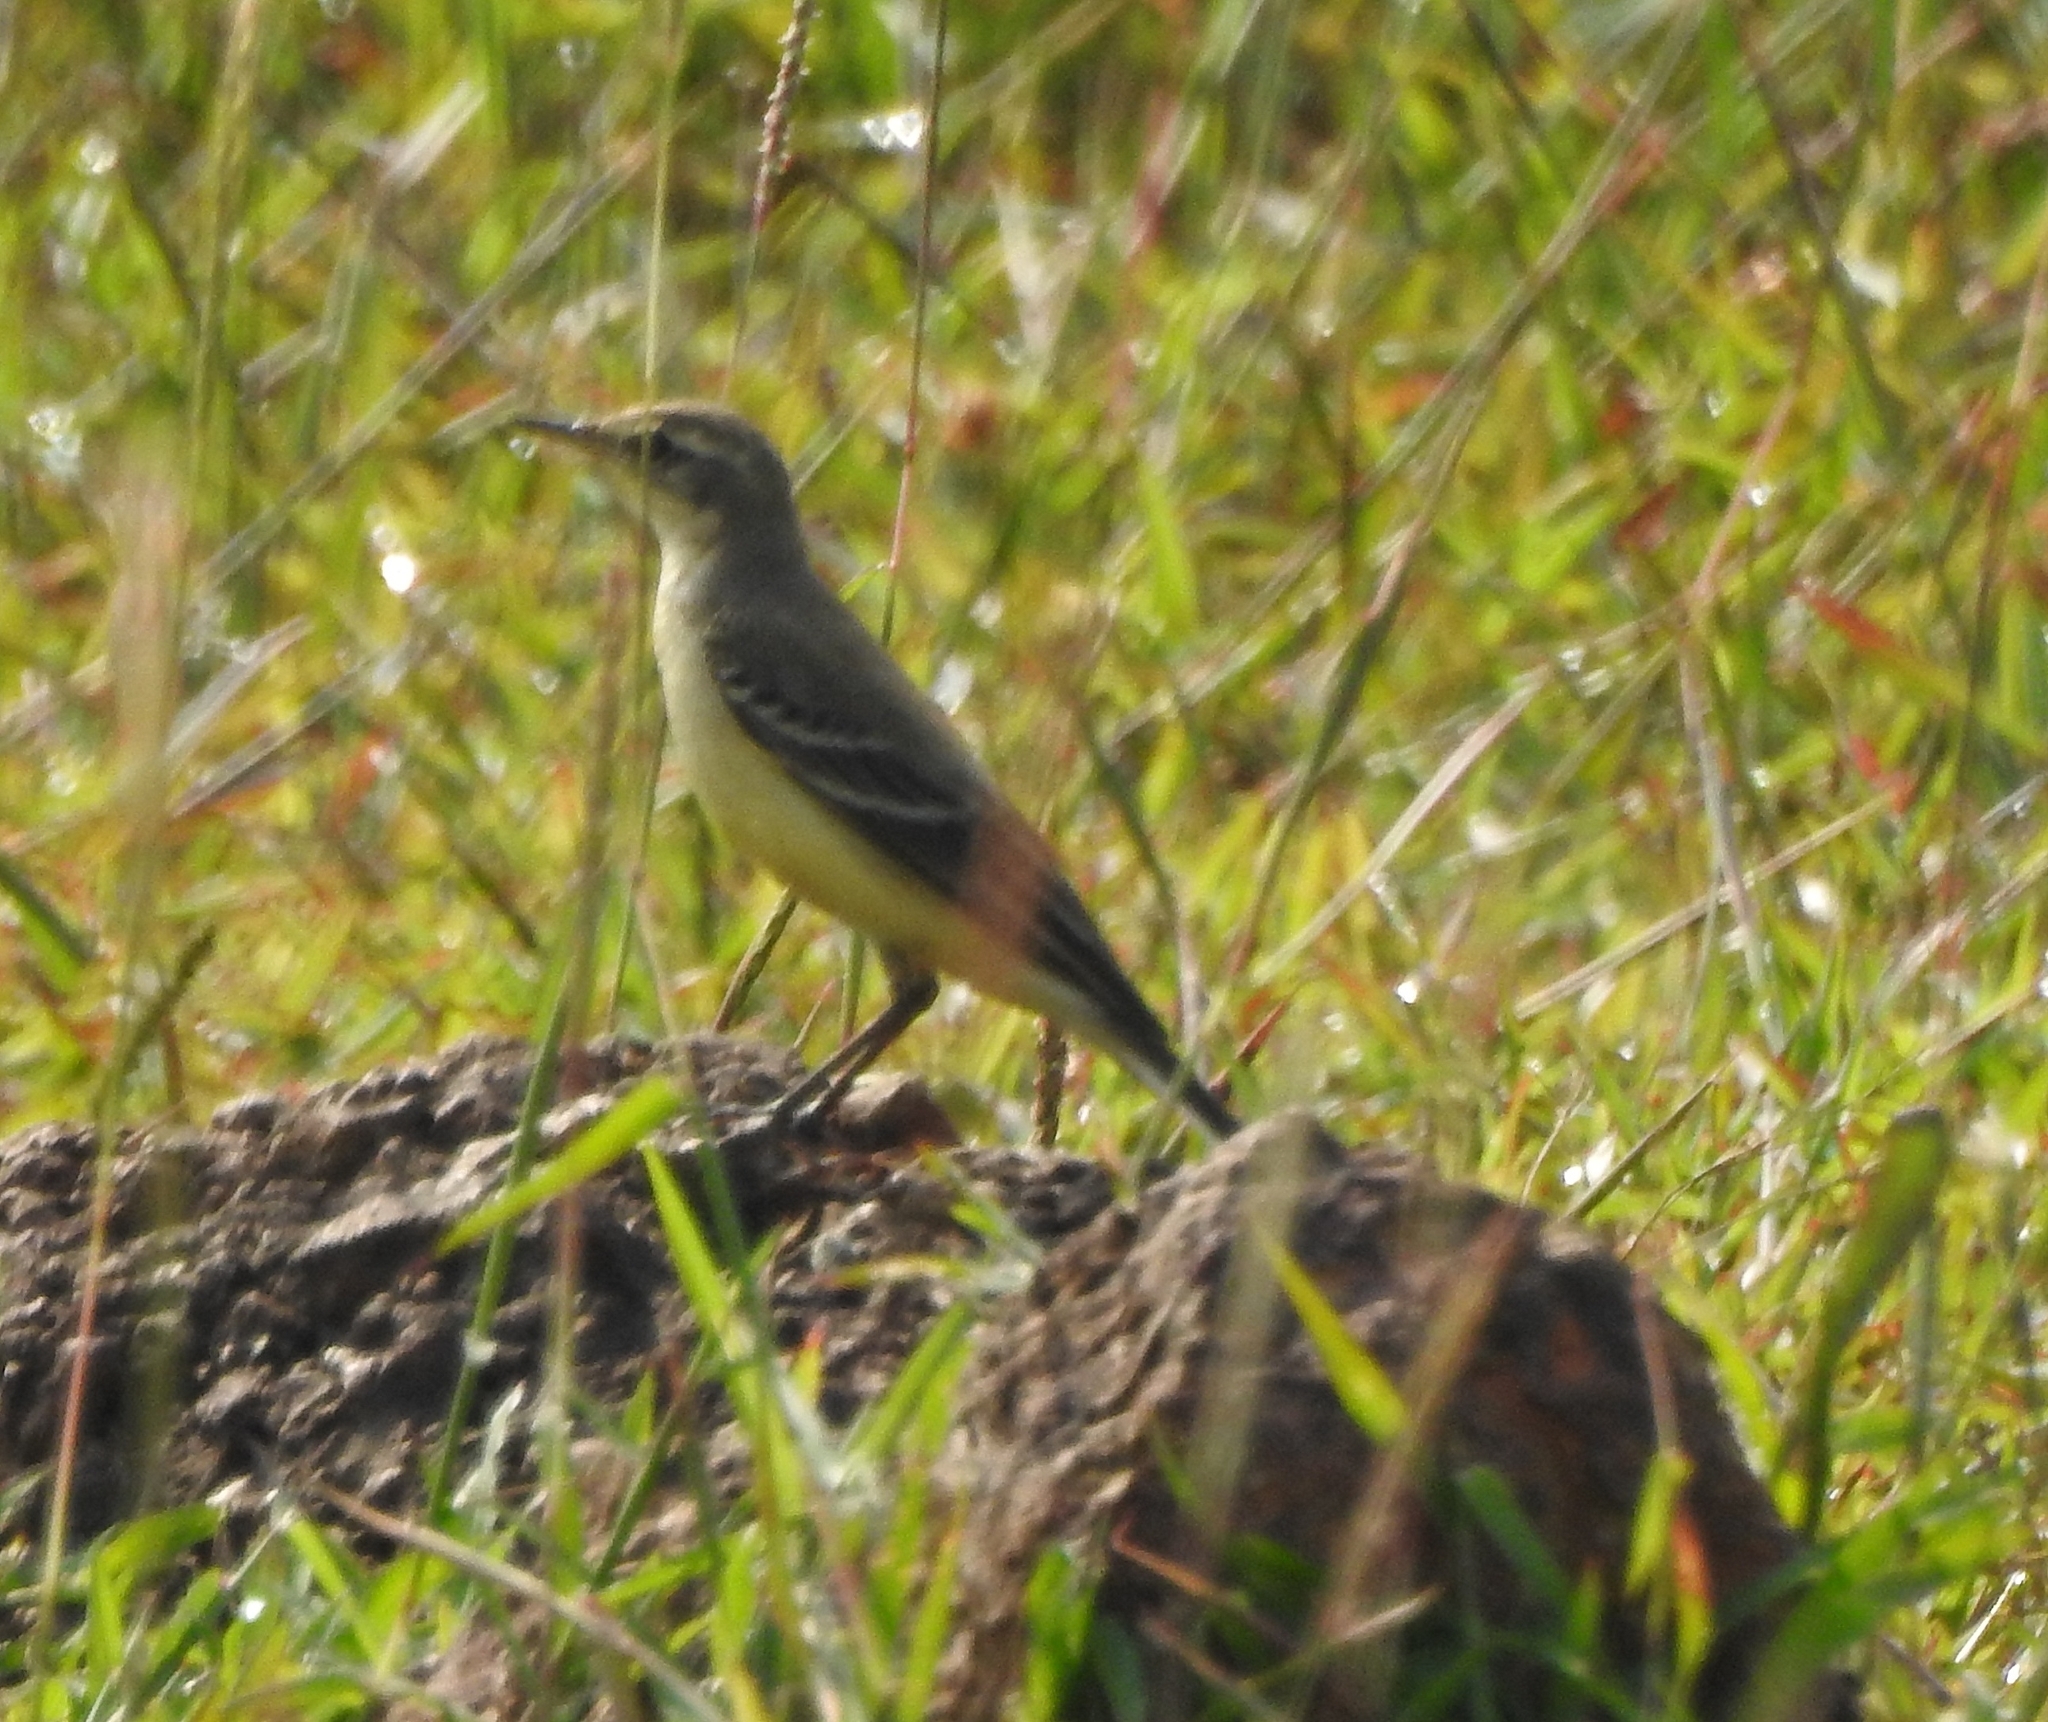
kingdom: Animalia
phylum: Chordata
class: Aves
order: Passeriformes
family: Motacillidae
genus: Motacilla
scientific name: Motacilla flava
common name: Western yellow wagtail
